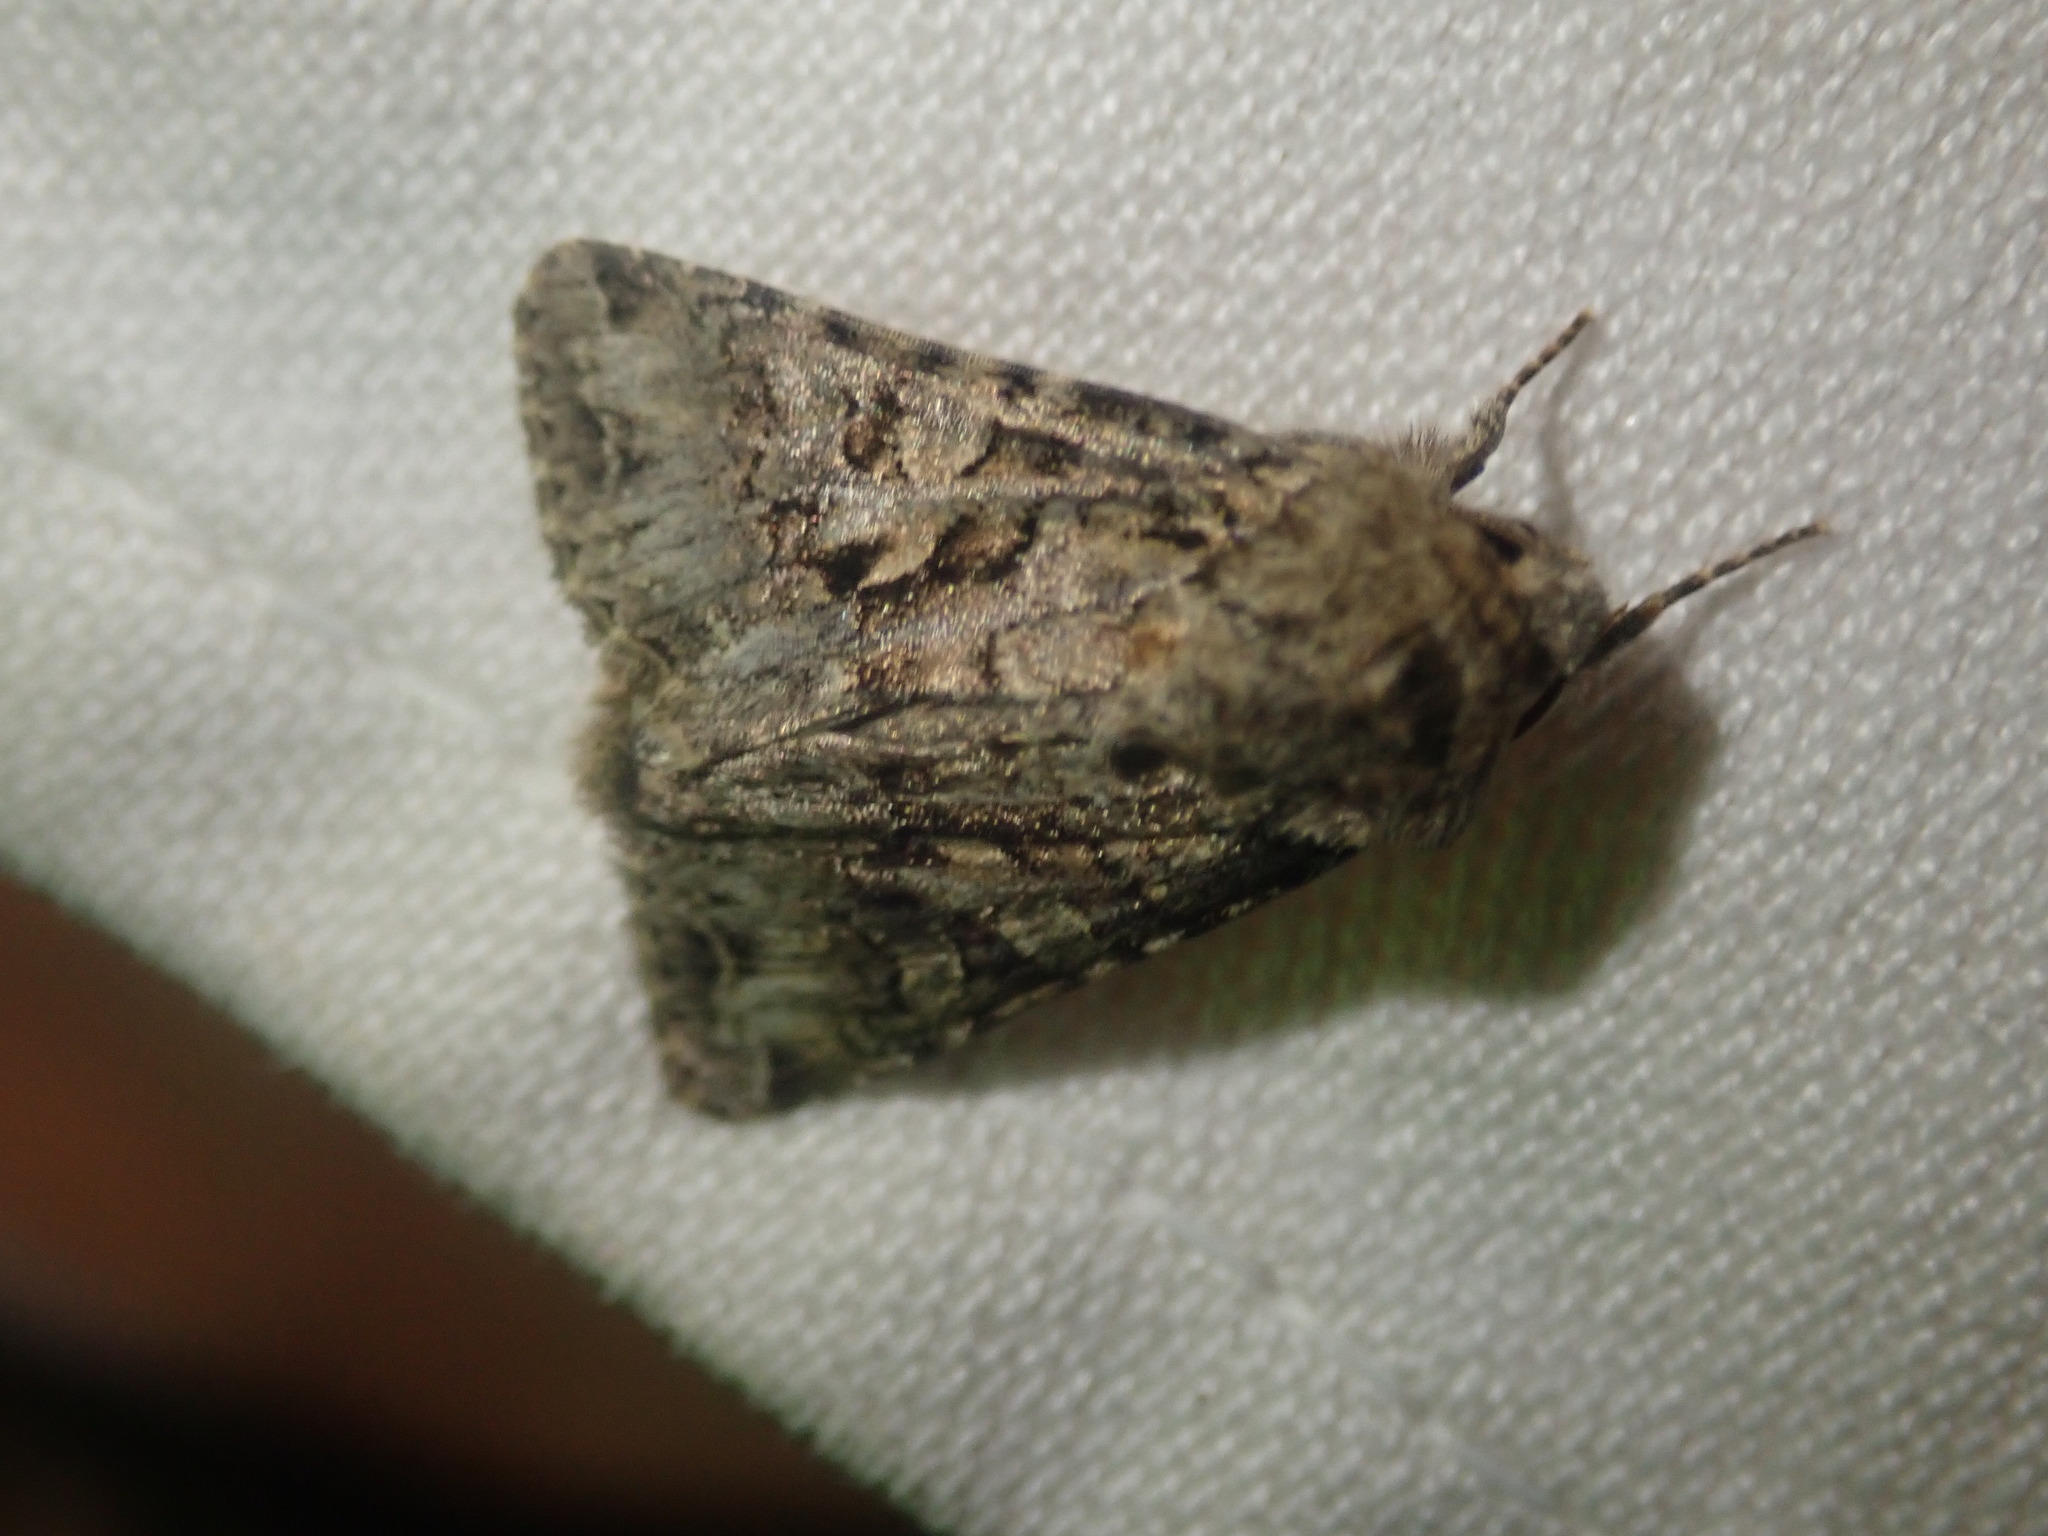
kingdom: Animalia
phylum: Arthropoda
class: Insecta
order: Lepidoptera
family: Noctuidae
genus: Hada
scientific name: Hada plebeja
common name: Shears
